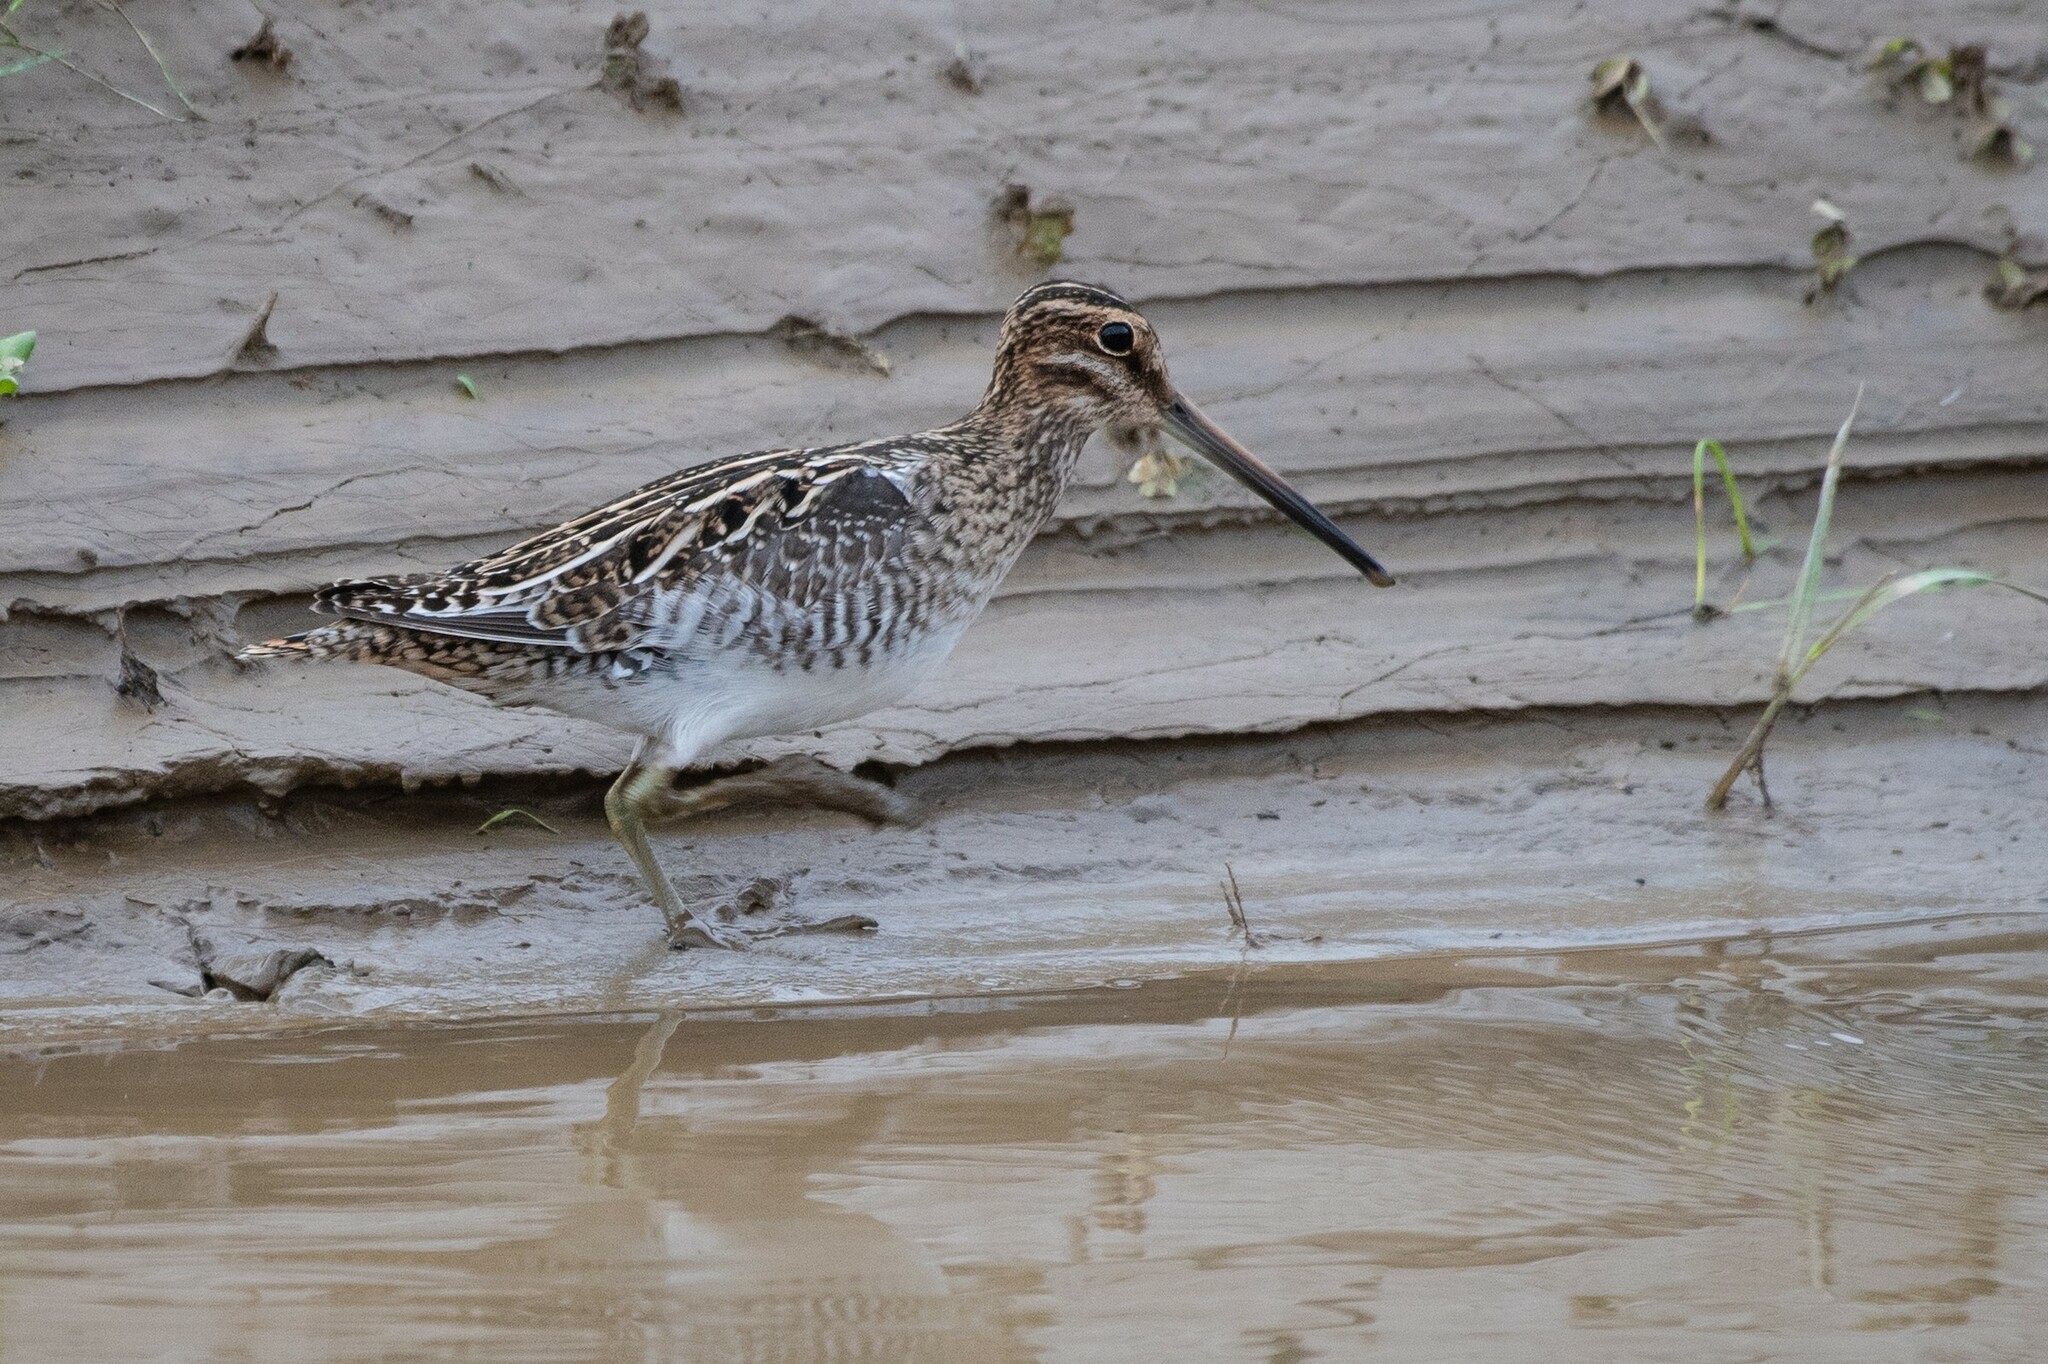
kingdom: Animalia
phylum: Chordata
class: Aves
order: Charadriiformes
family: Scolopacidae
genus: Gallinago
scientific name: Gallinago delicata
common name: Wilson's snipe
